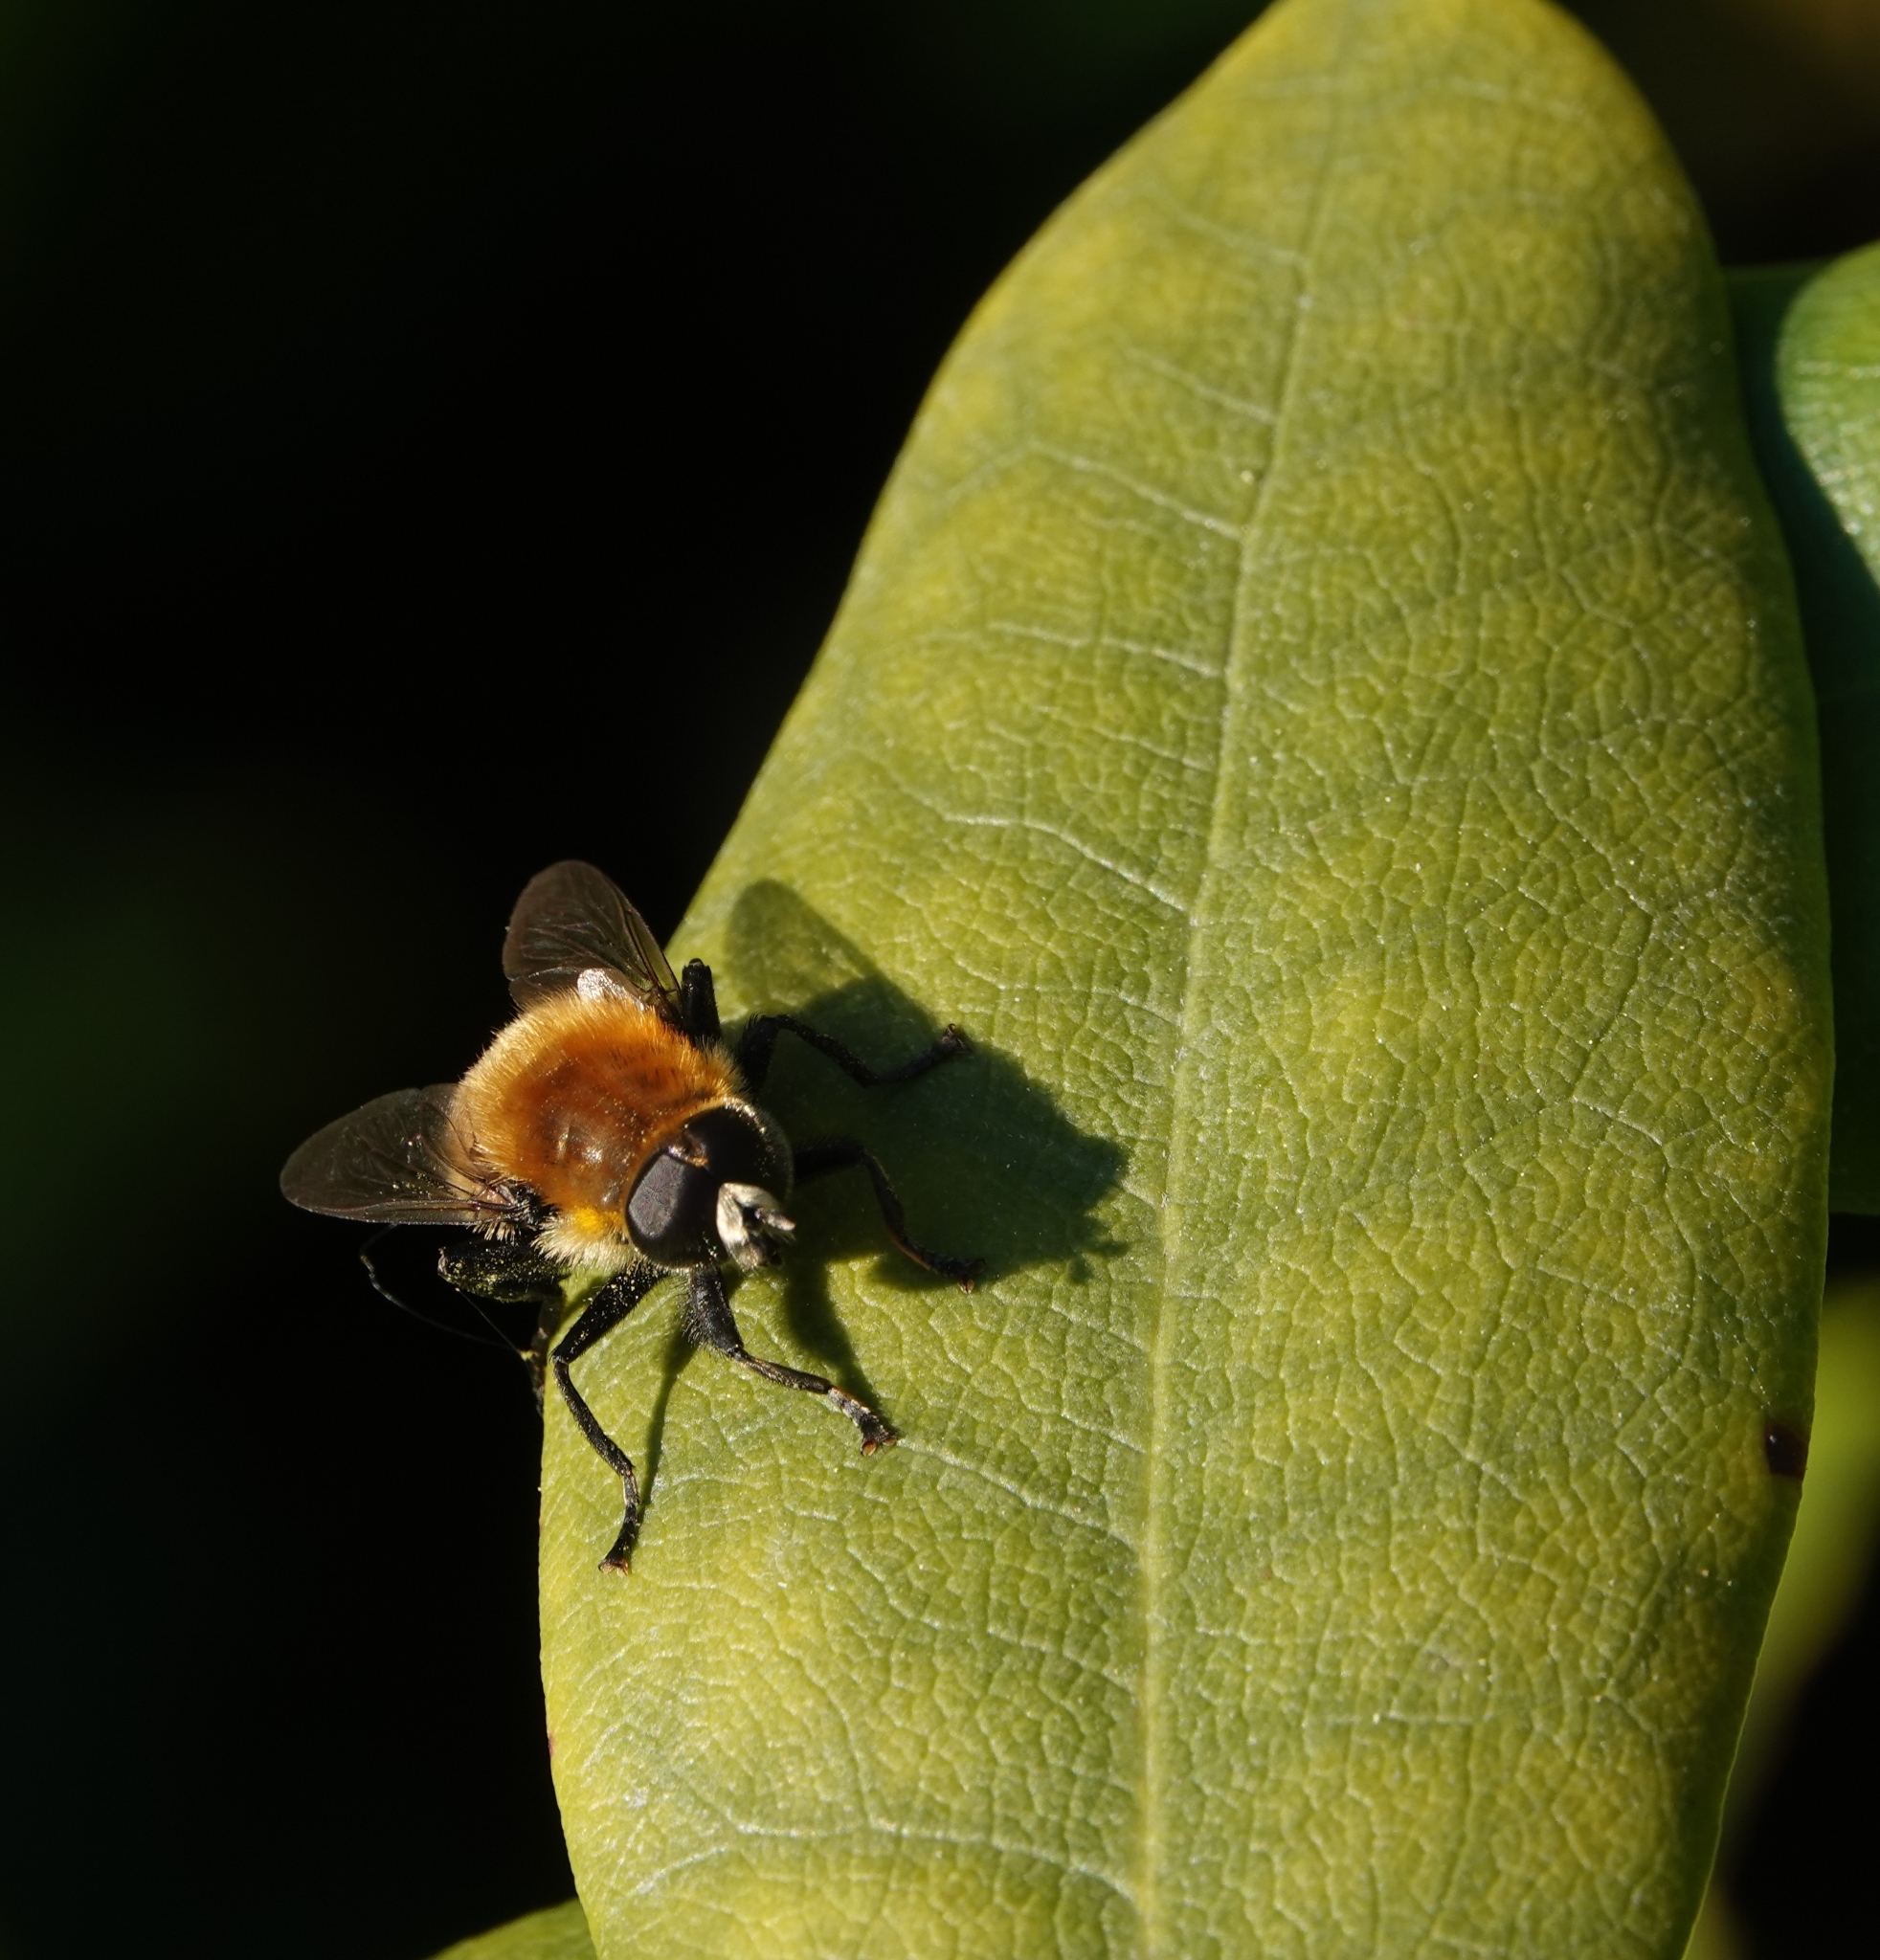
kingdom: Animalia
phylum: Arthropoda
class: Insecta
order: Diptera
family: Syrphidae
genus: Merodon
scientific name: Merodon equestris
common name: Greater bulb-fly
